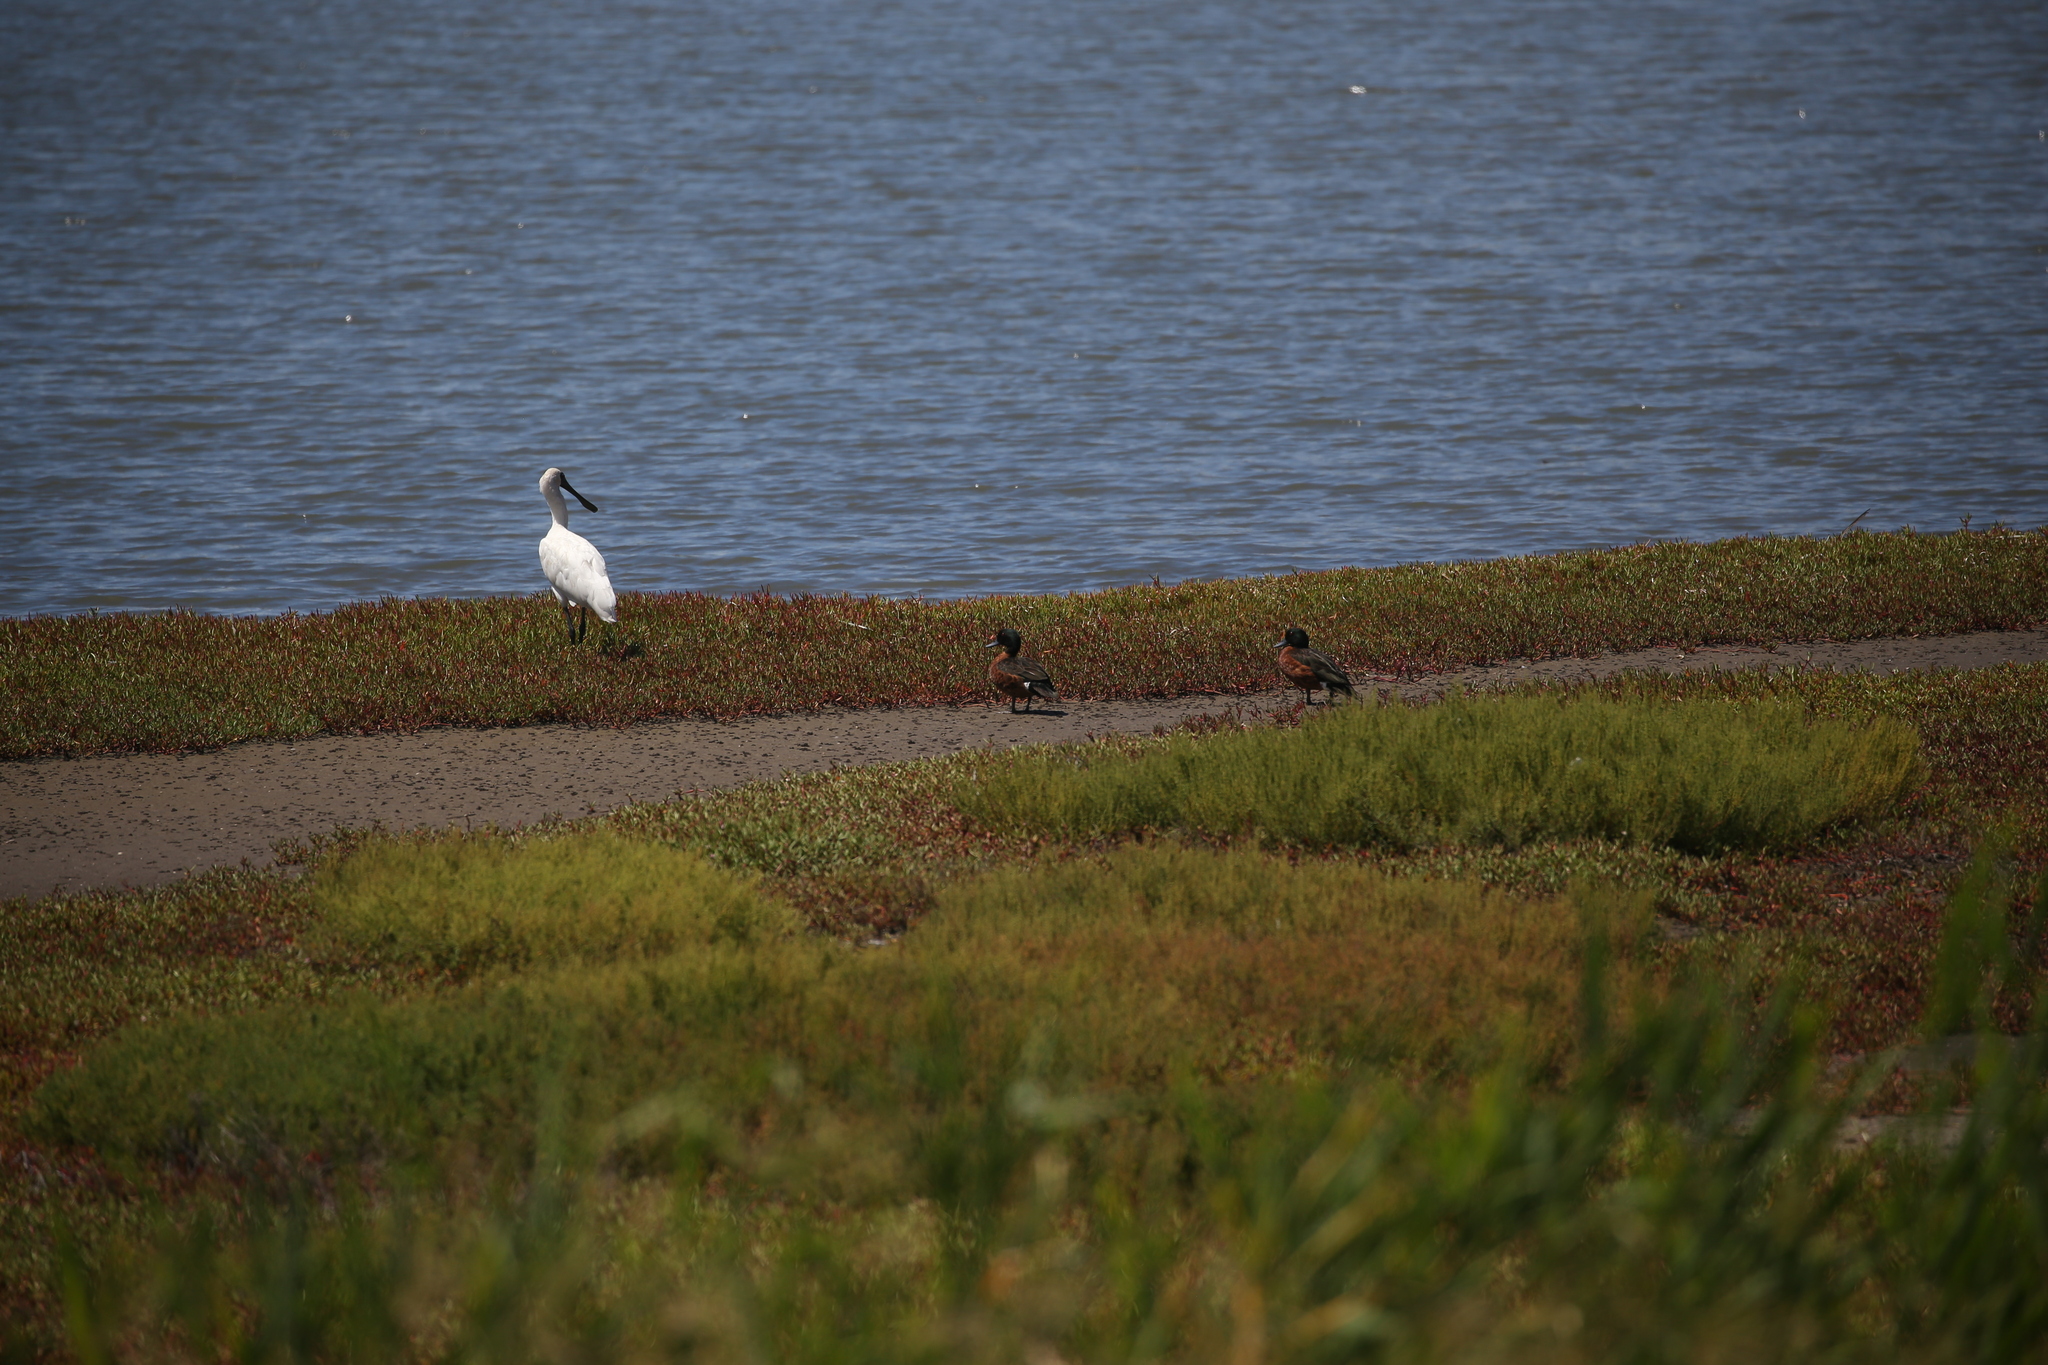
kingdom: Animalia
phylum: Chordata
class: Aves
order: Anseriformes
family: Anatidae
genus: Anas
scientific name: Anas castanea
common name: Chestnut teal
